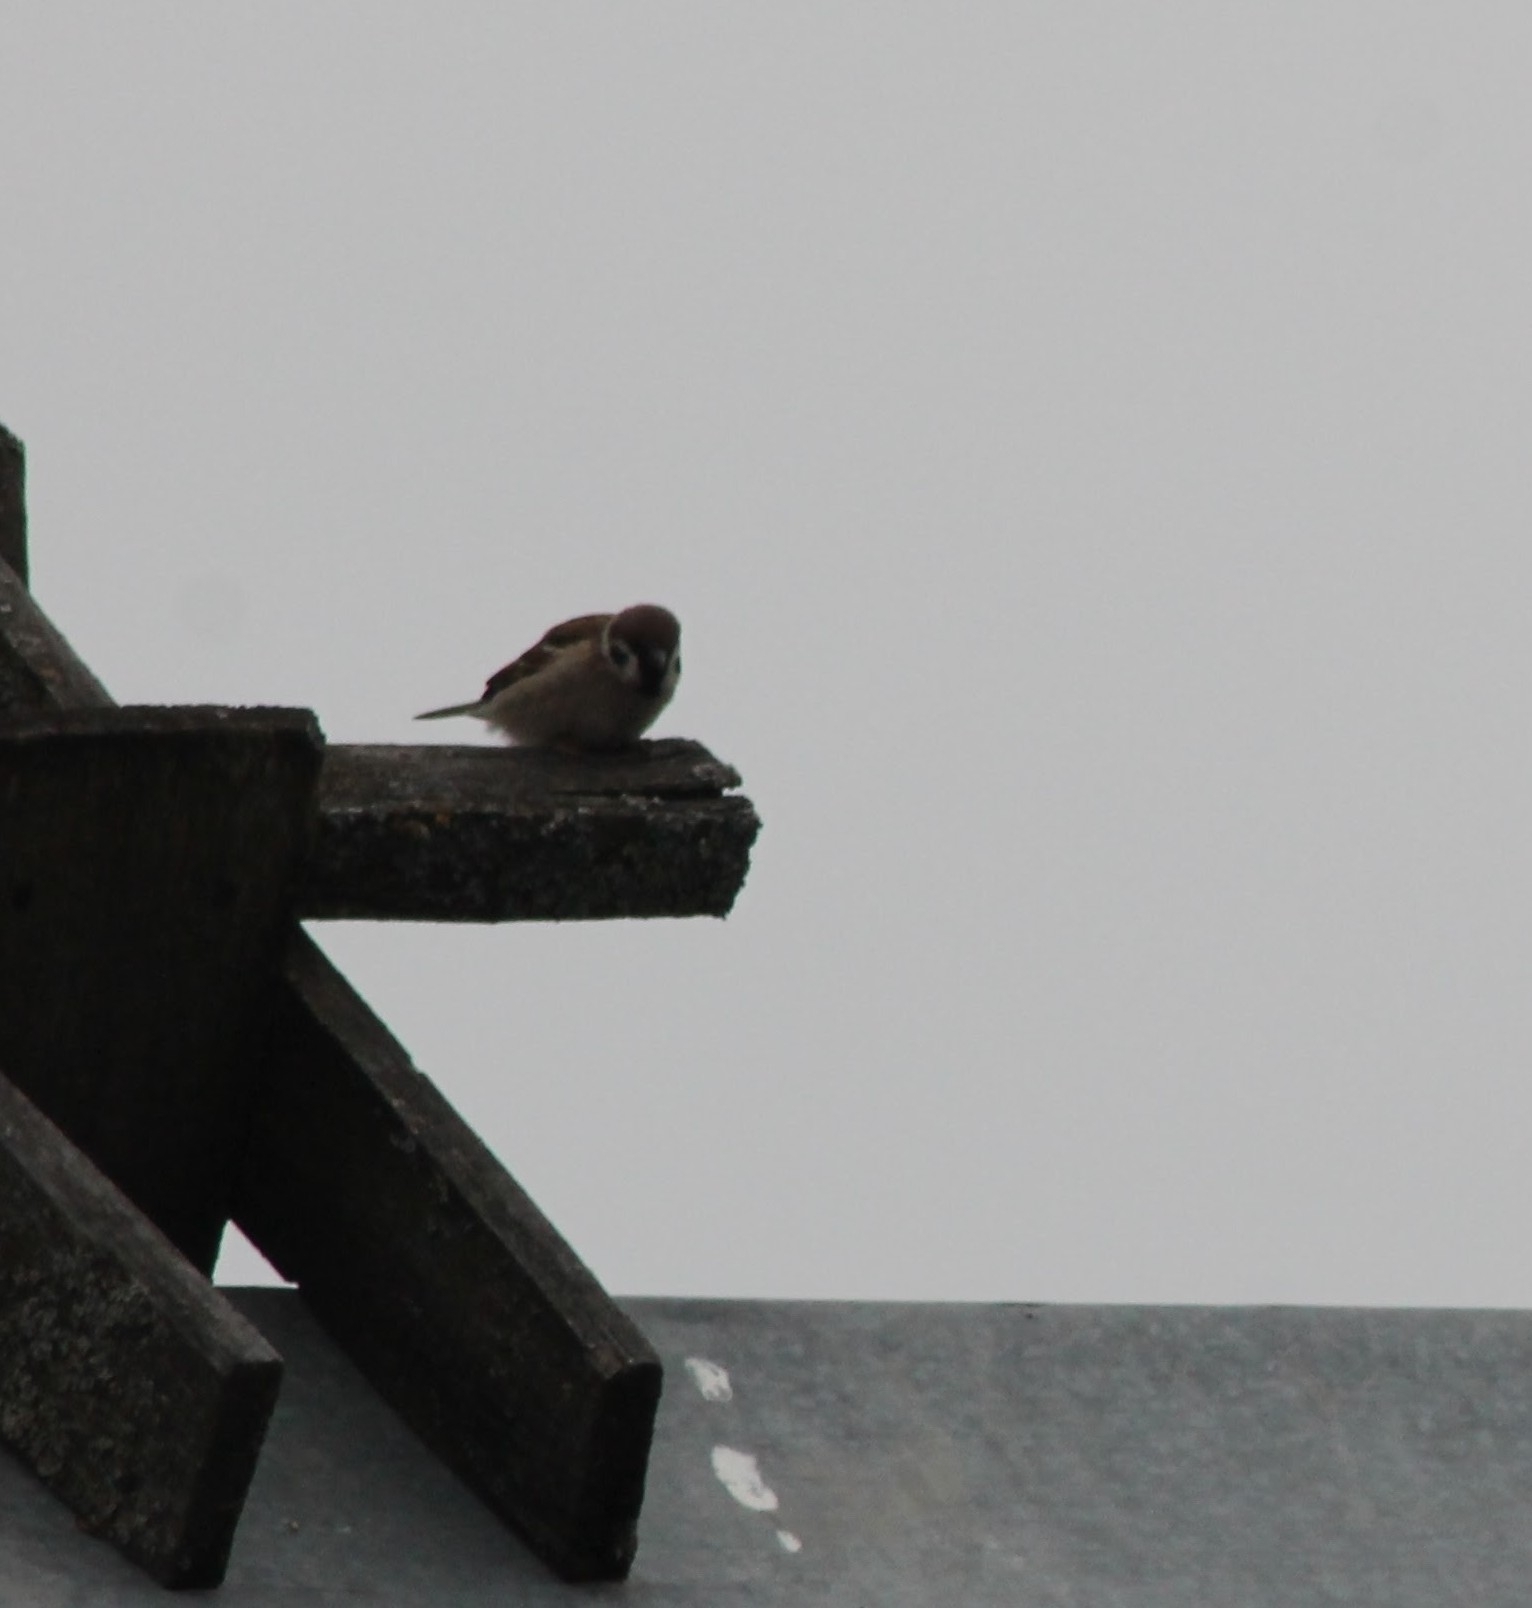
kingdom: Animalia
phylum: Chordata
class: Aves
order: Passeriformes
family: Passeridae
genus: Passer
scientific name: Passer montanus
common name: Eurasian tree sparrow
